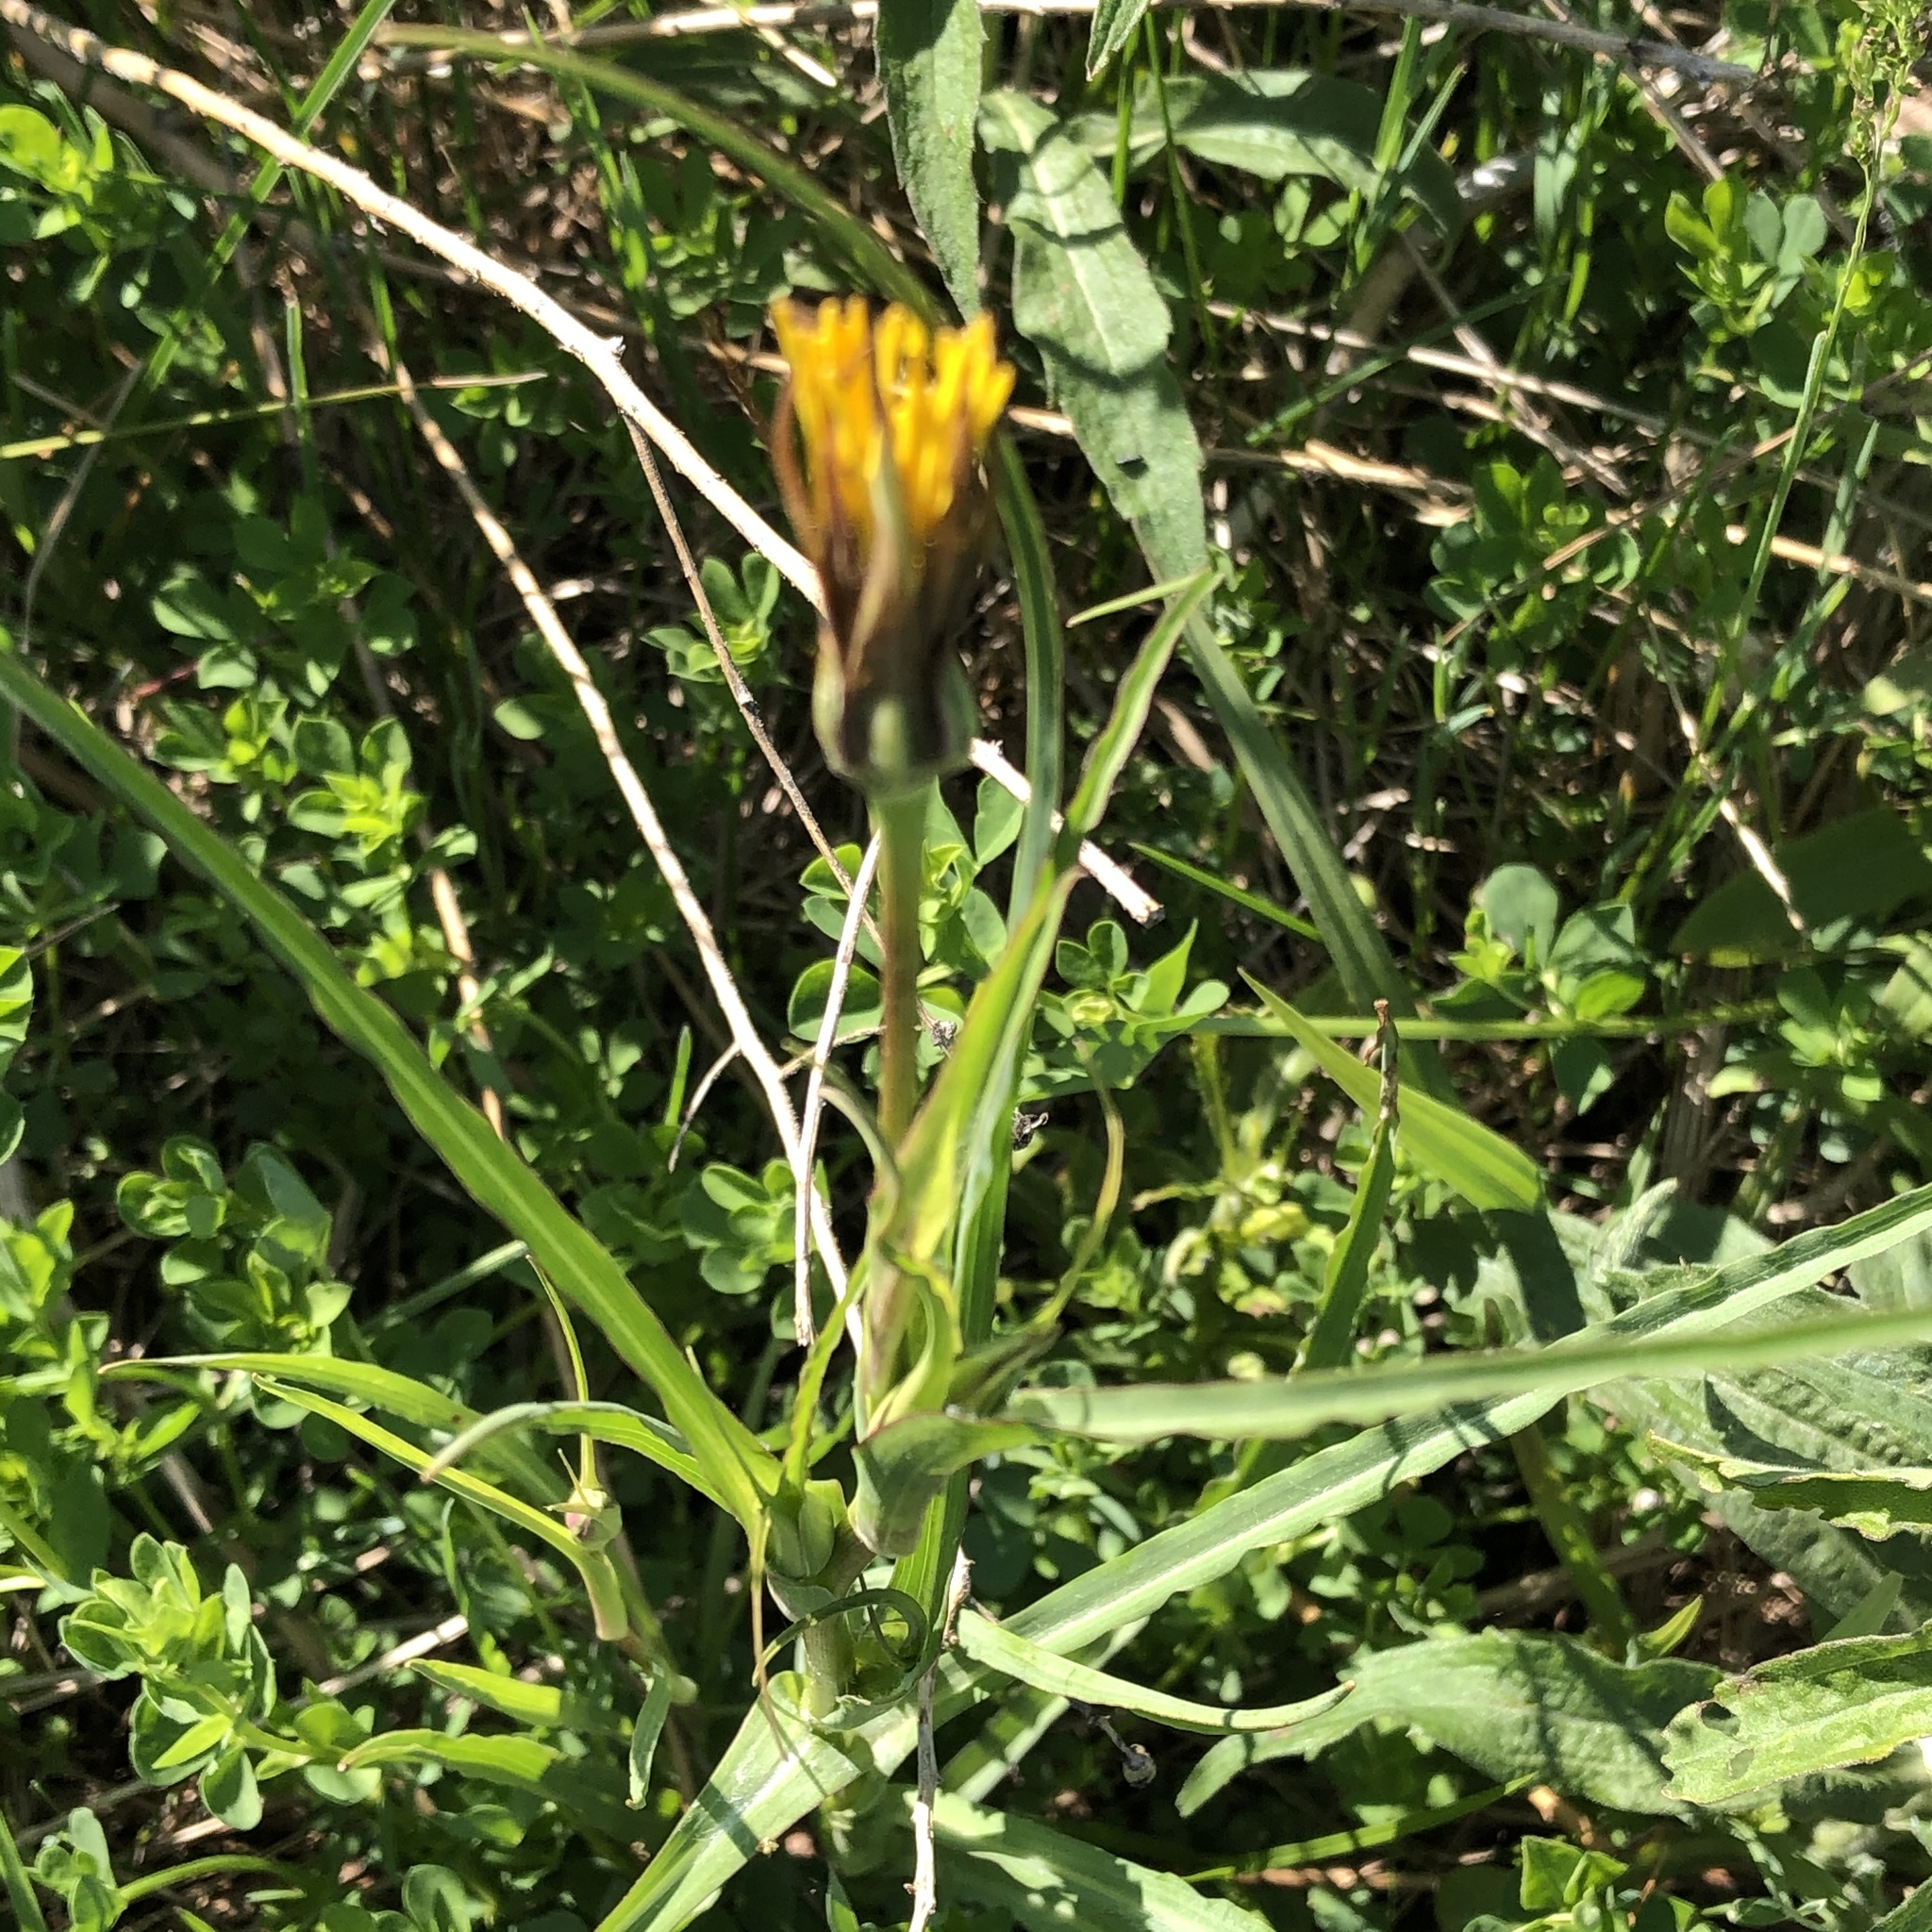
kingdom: Plantae
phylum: Tracheophyta
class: Magnoliopsida
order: Asterales
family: Asteraceae
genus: Tragopogon
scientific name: Tragopogon pratensis
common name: Goat's-beard
